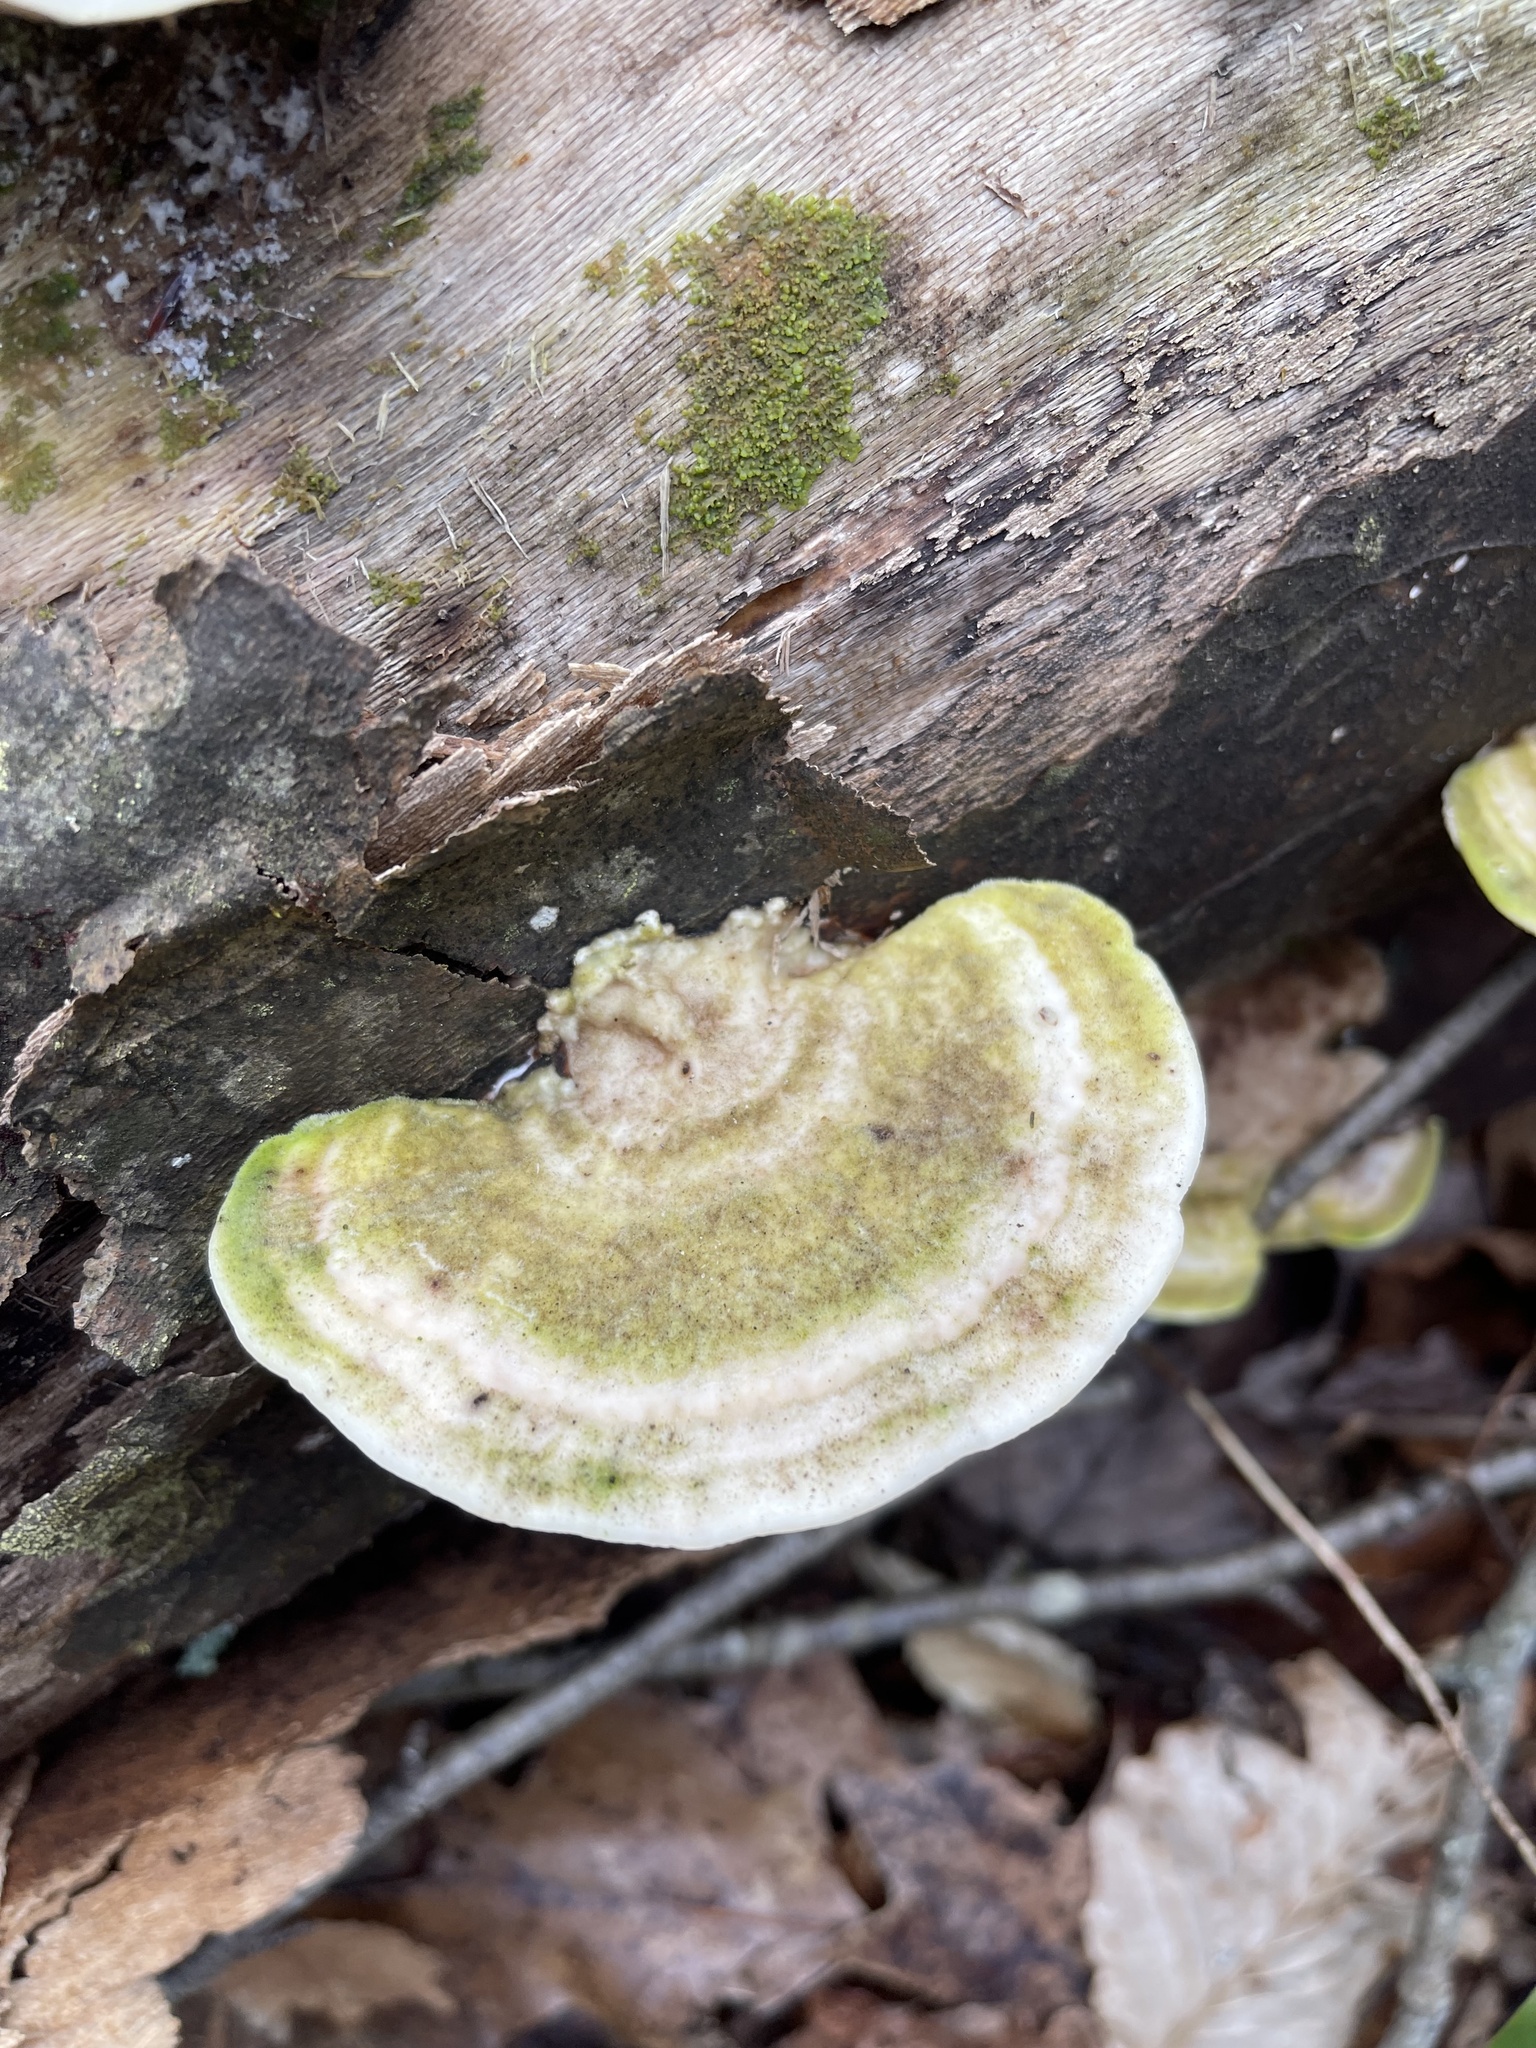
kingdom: Fungi
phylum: Basidiomycota
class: Agaricomycetes
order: Polyporales
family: Polyporaceae
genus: Trametes
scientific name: Trametes gibbosa
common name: Lumpy bracket
